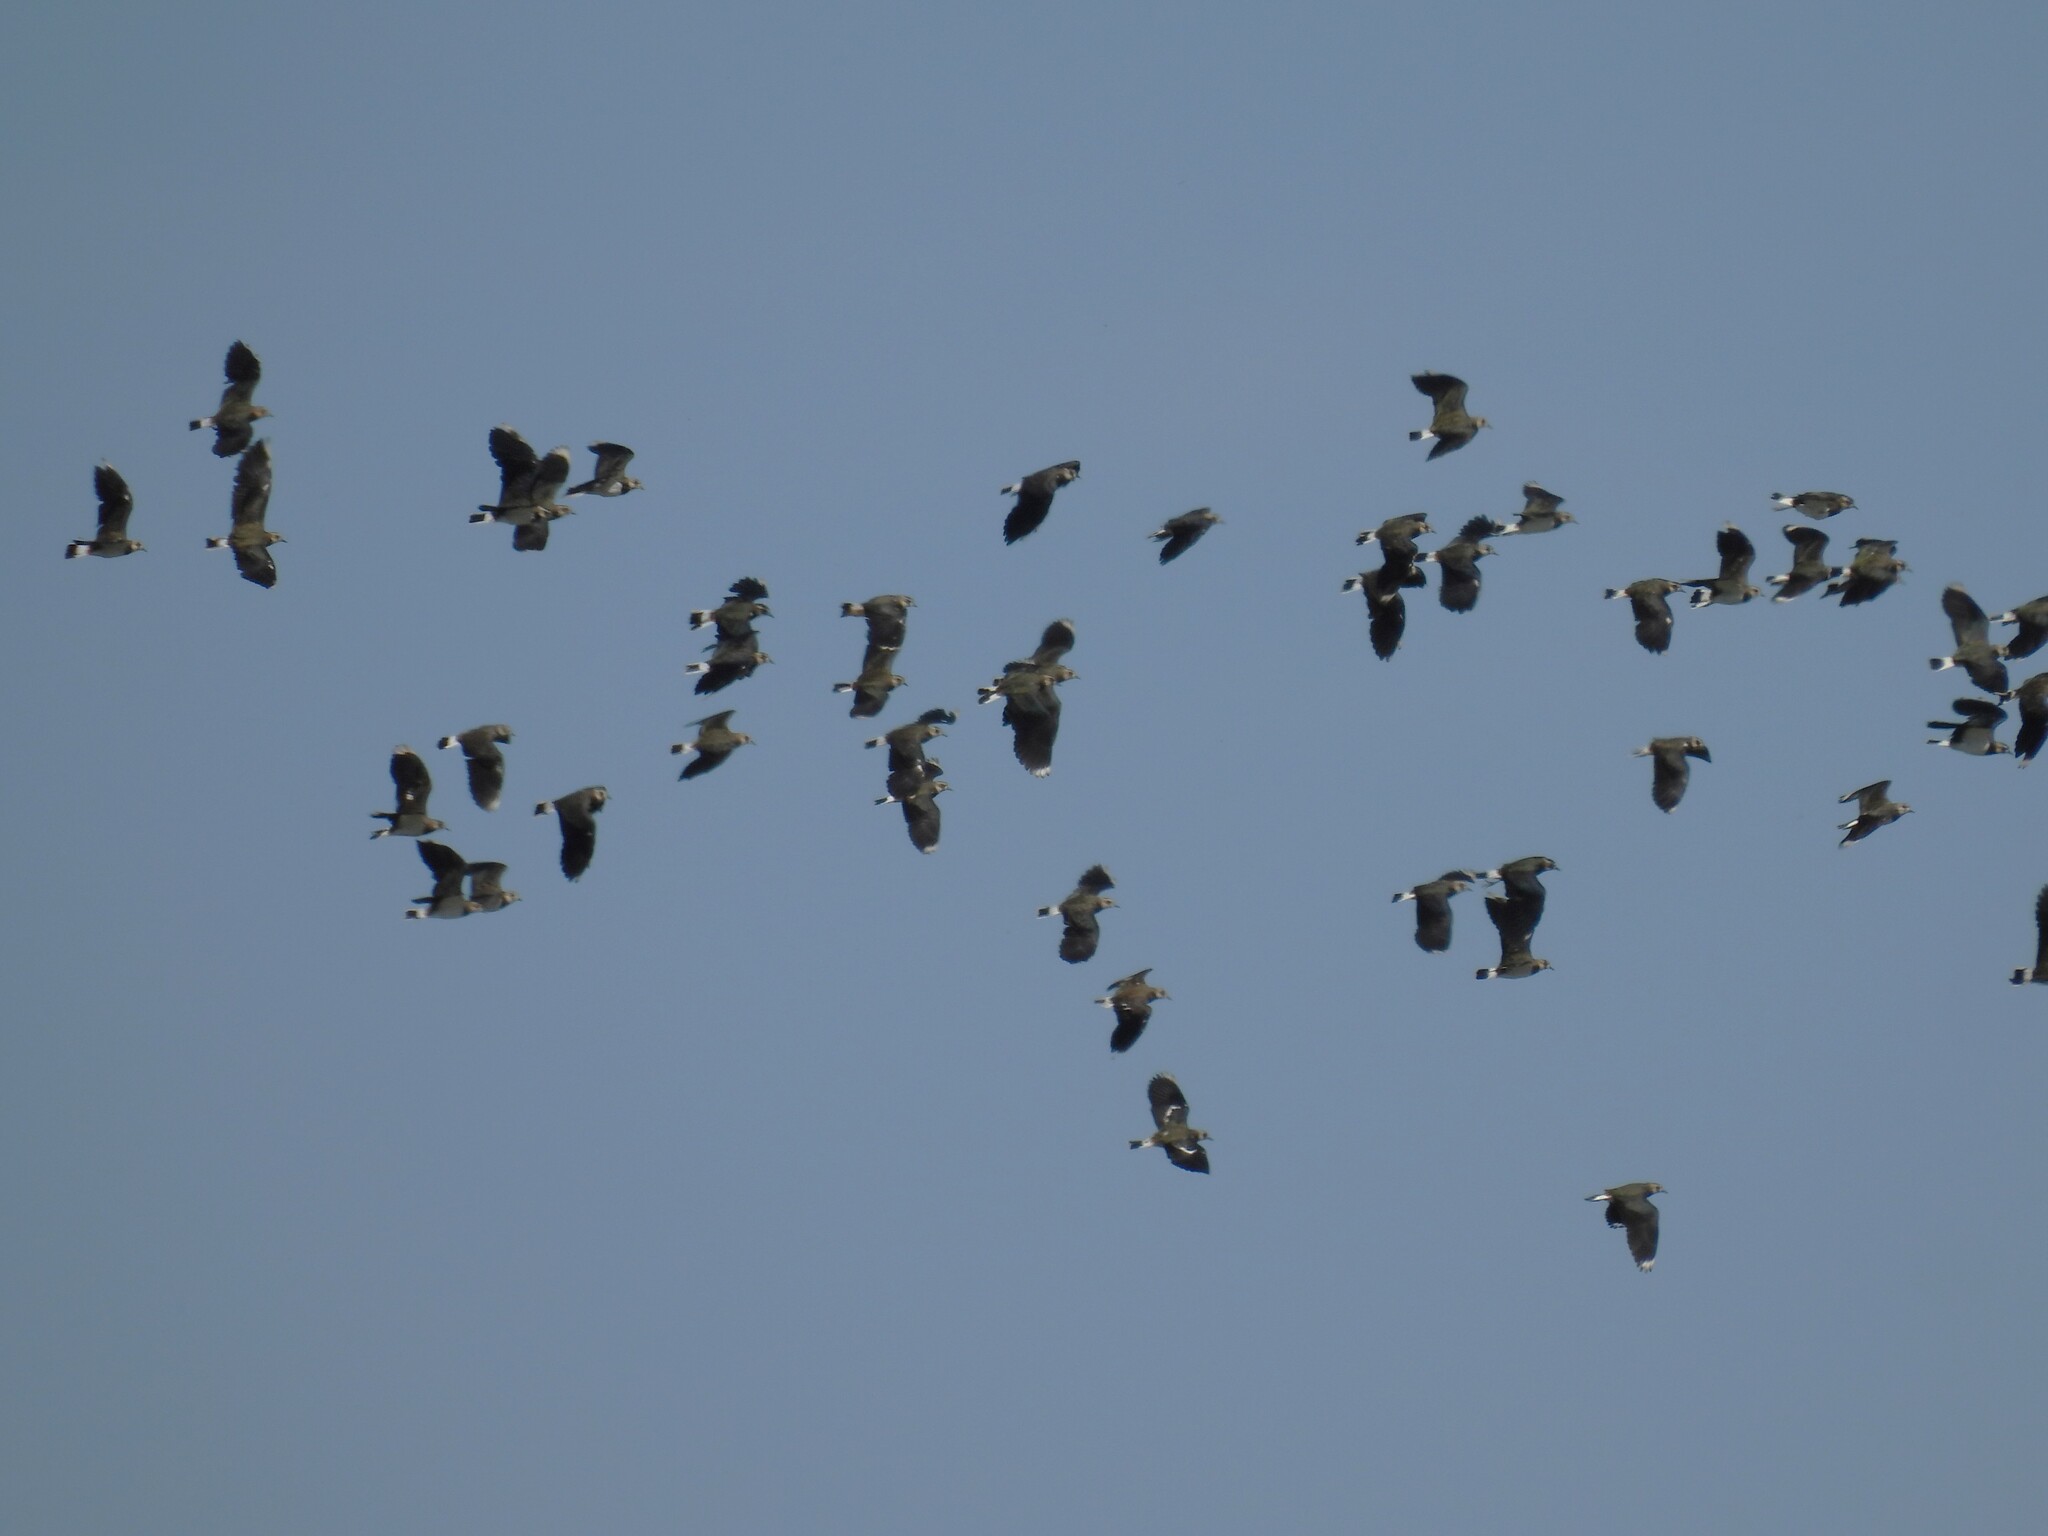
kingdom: Animalia
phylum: Chordata
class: Aves
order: Charadriiformes
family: Charadriidae
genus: Vanellus
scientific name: Vanellus vanellus
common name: Northern lapwing
